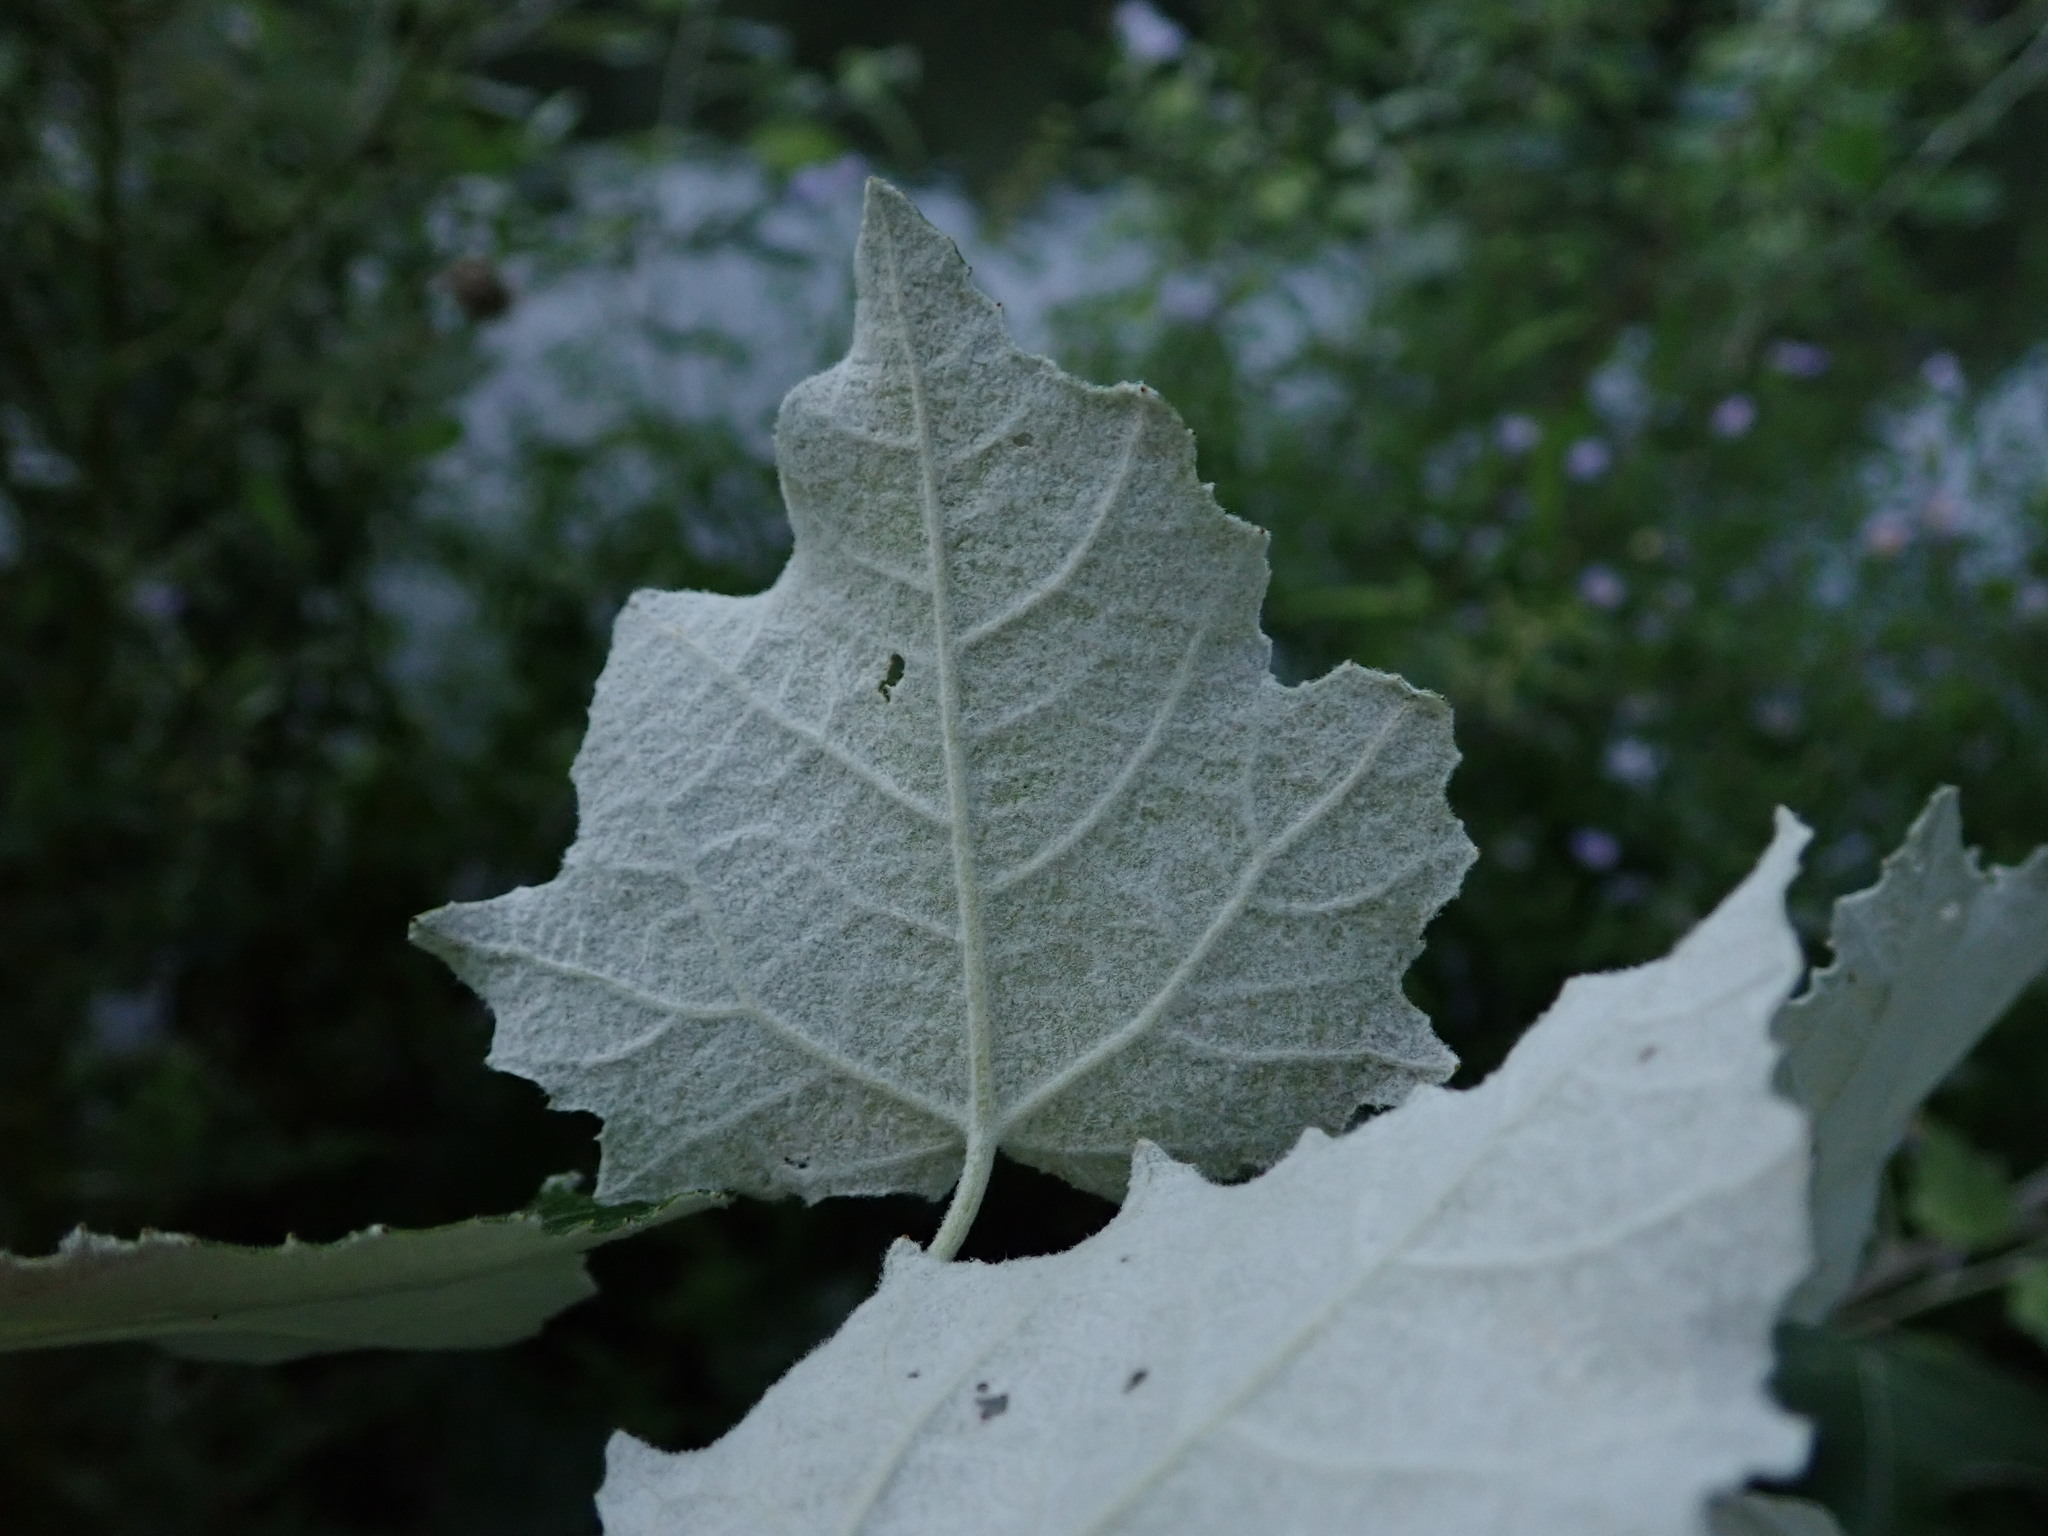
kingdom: Plantae
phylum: Tracheophyta
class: Magnoliopsida
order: Malpighiales
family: Salicaceae
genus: Populus
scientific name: Populus alba
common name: White poplar
